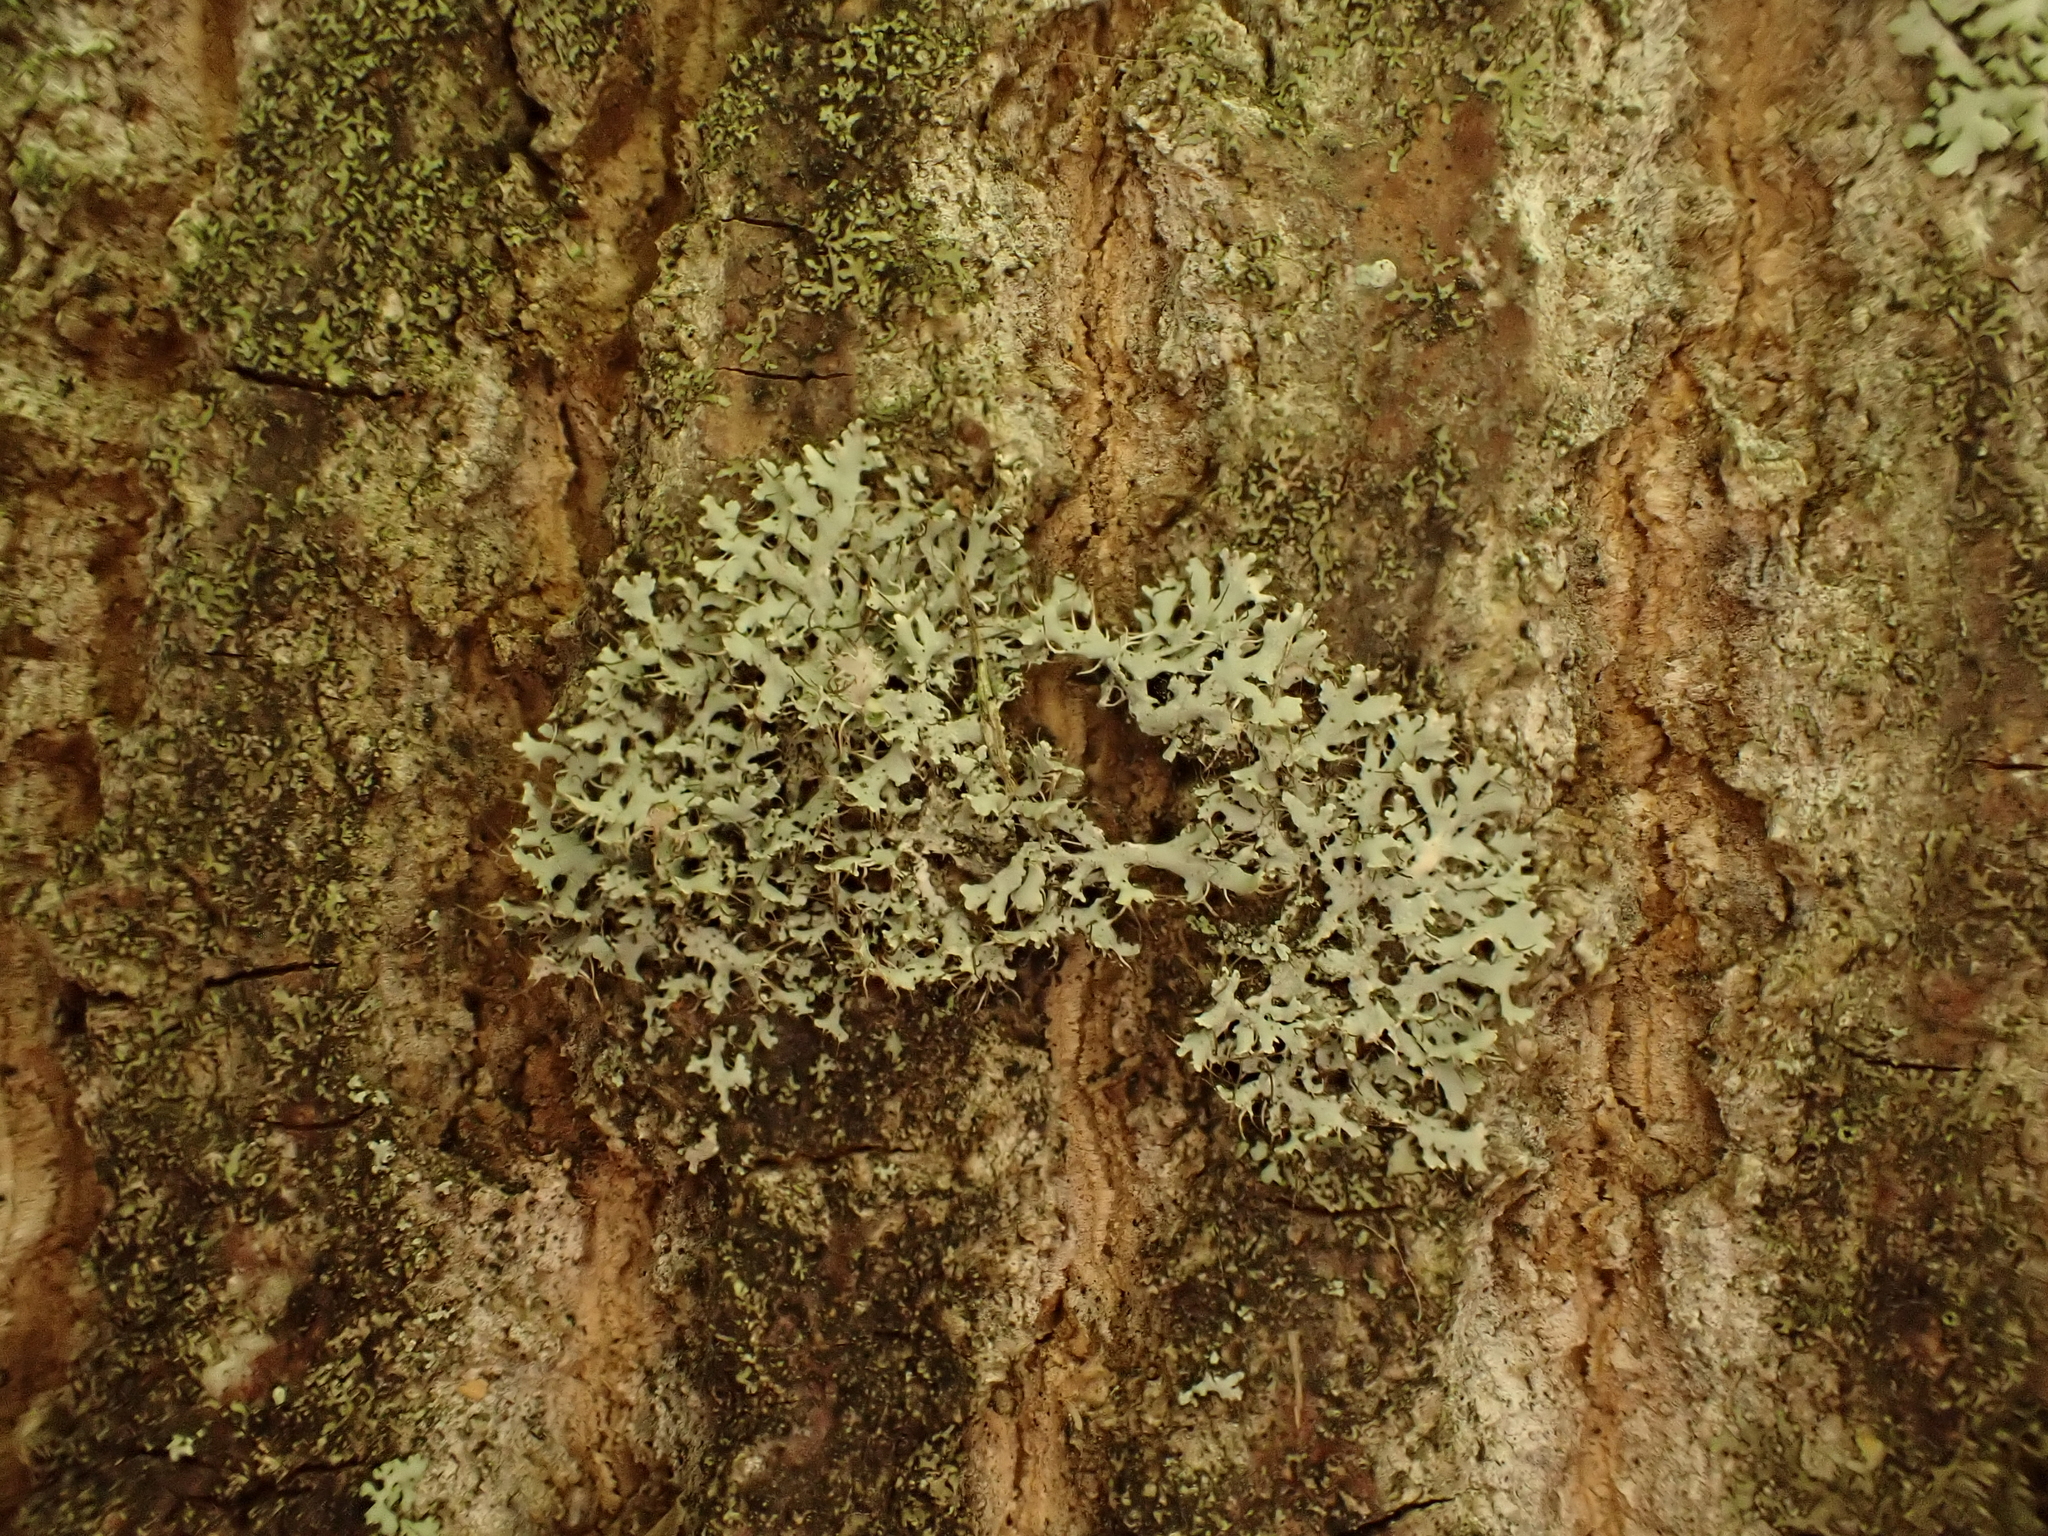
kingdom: Fungi
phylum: Ascomycota
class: Lecanoromycetes
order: Caliciales
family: Physciaceae
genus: Physcia
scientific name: Physcia adscendens
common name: Hooded rosette lichen
